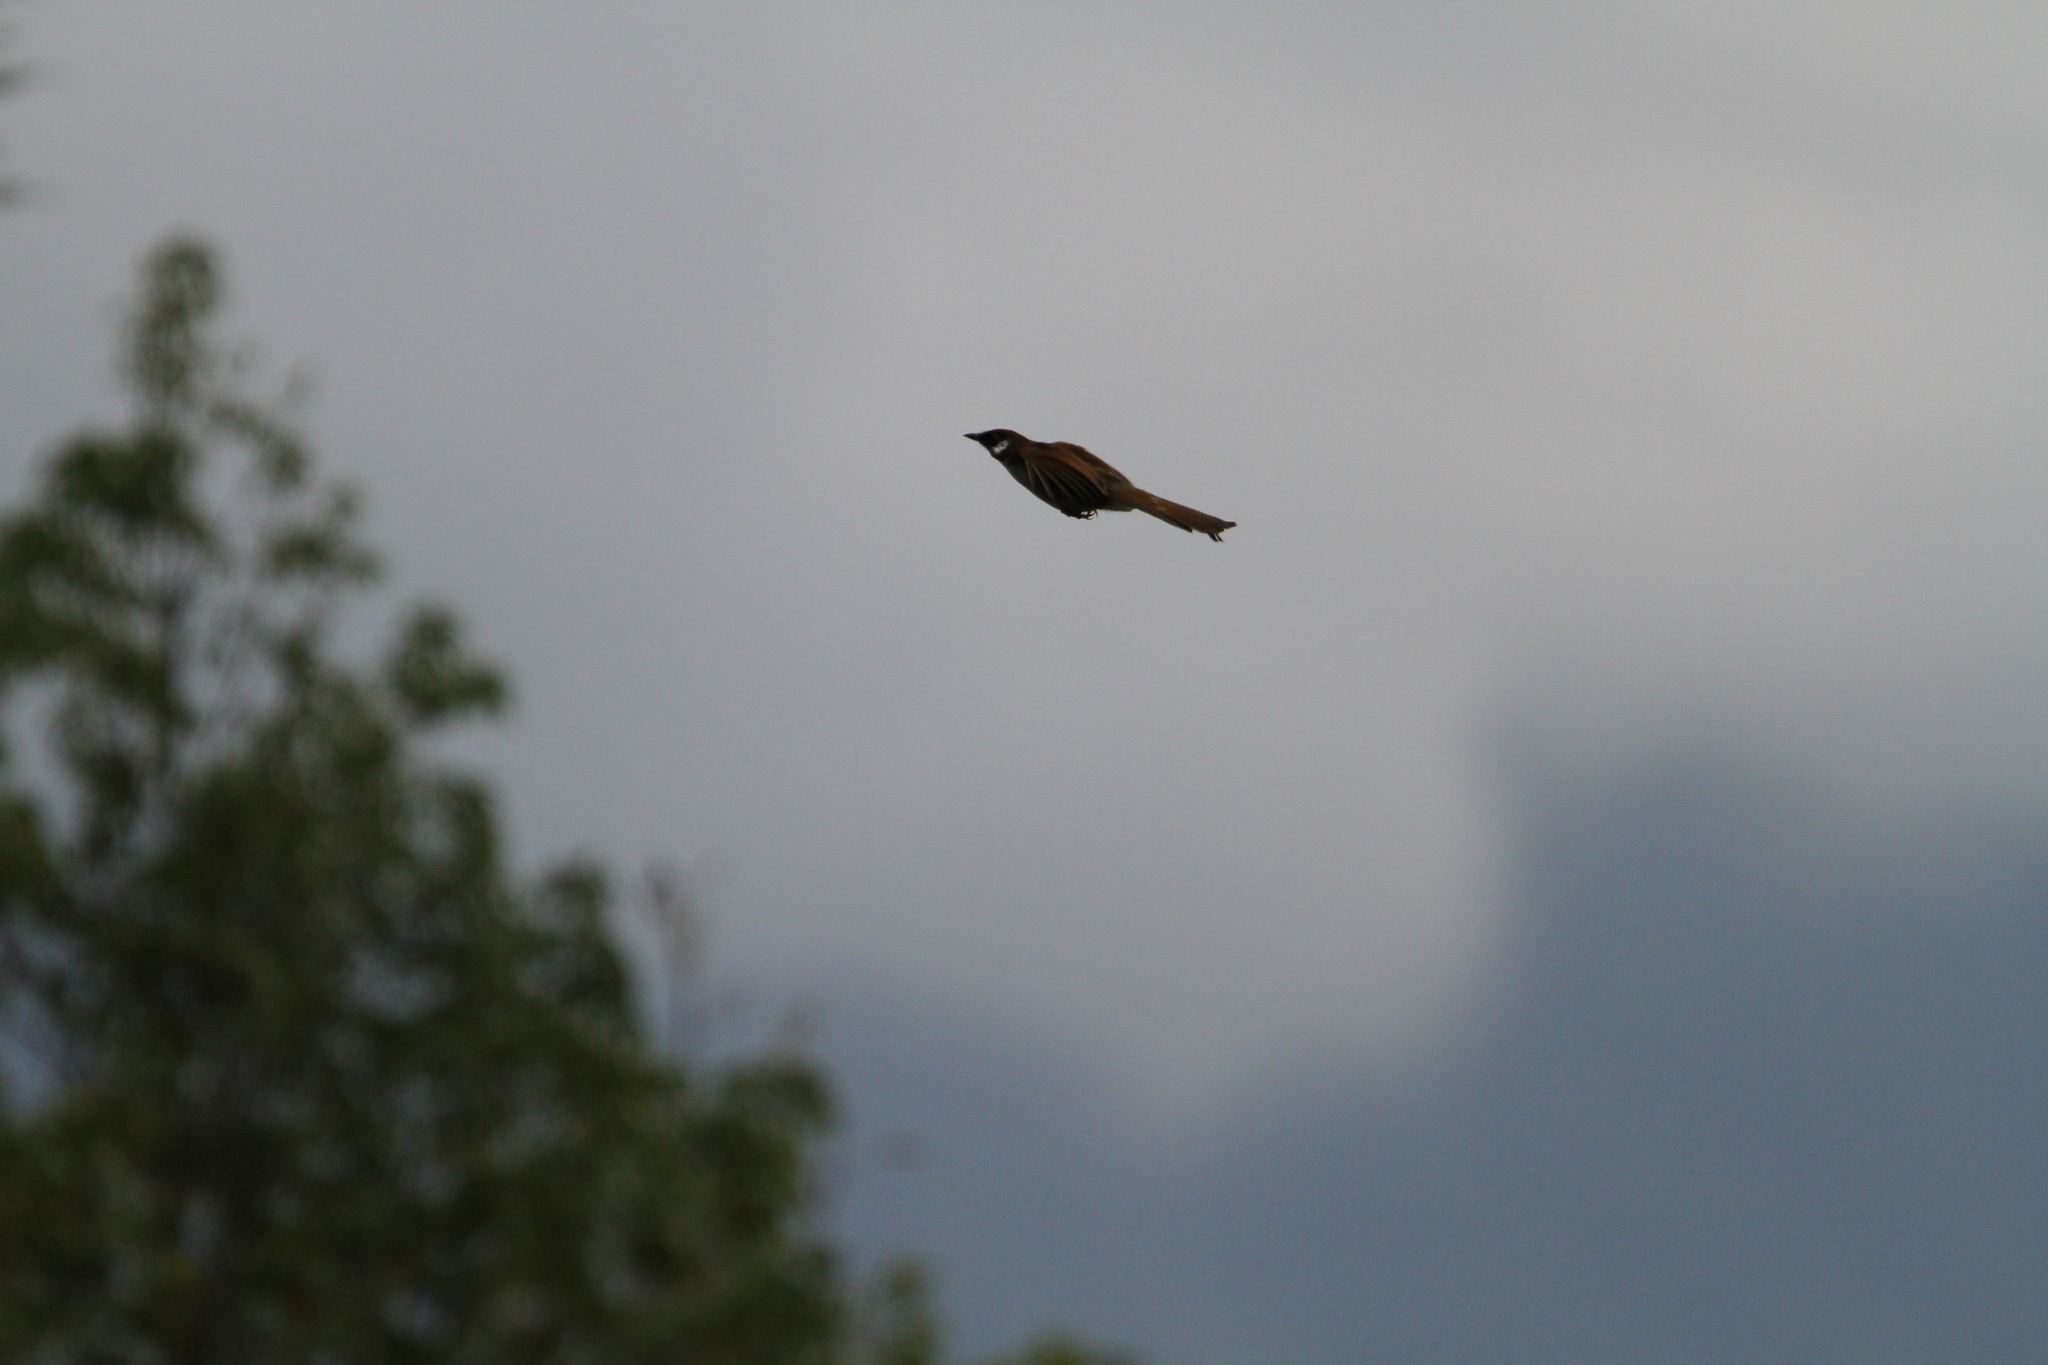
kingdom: Animalia
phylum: Chordata
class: Aves
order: Passeriformes
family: Leiothrichidae
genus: Garrulax
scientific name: Garrulax caerulatus
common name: Grey-sided laughingthrush
